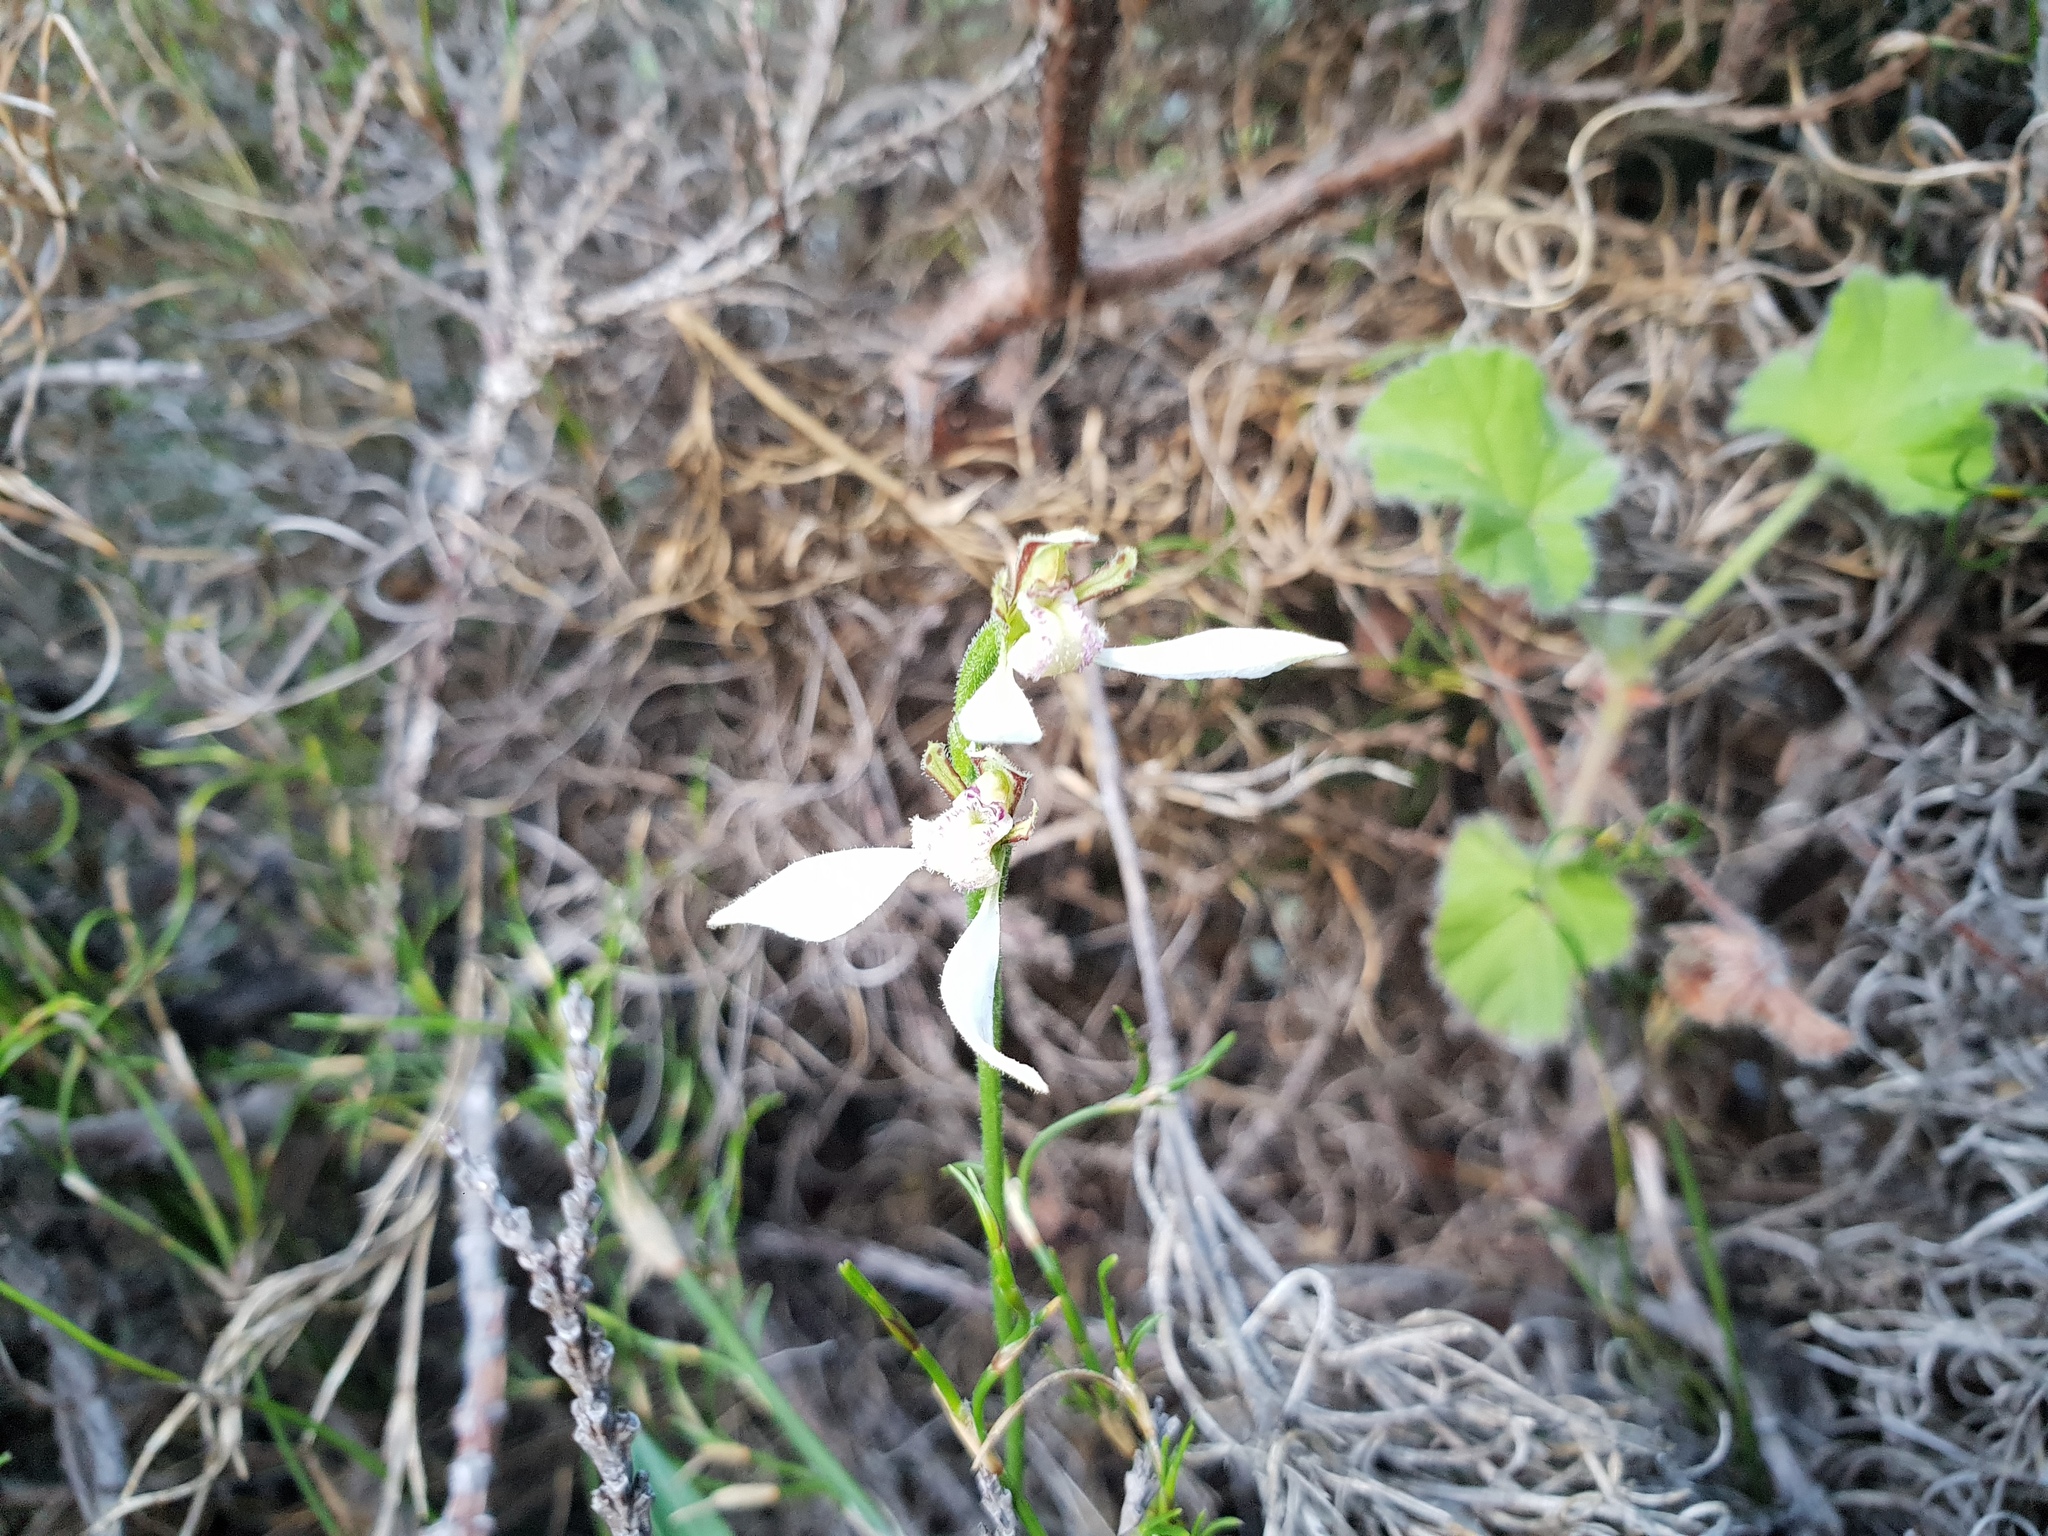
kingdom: Plantae
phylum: Tracheophyta
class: Liliopsida
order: Asparagales
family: Orchidaceae
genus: Eriochilus
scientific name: Eriochilus dilatatus
